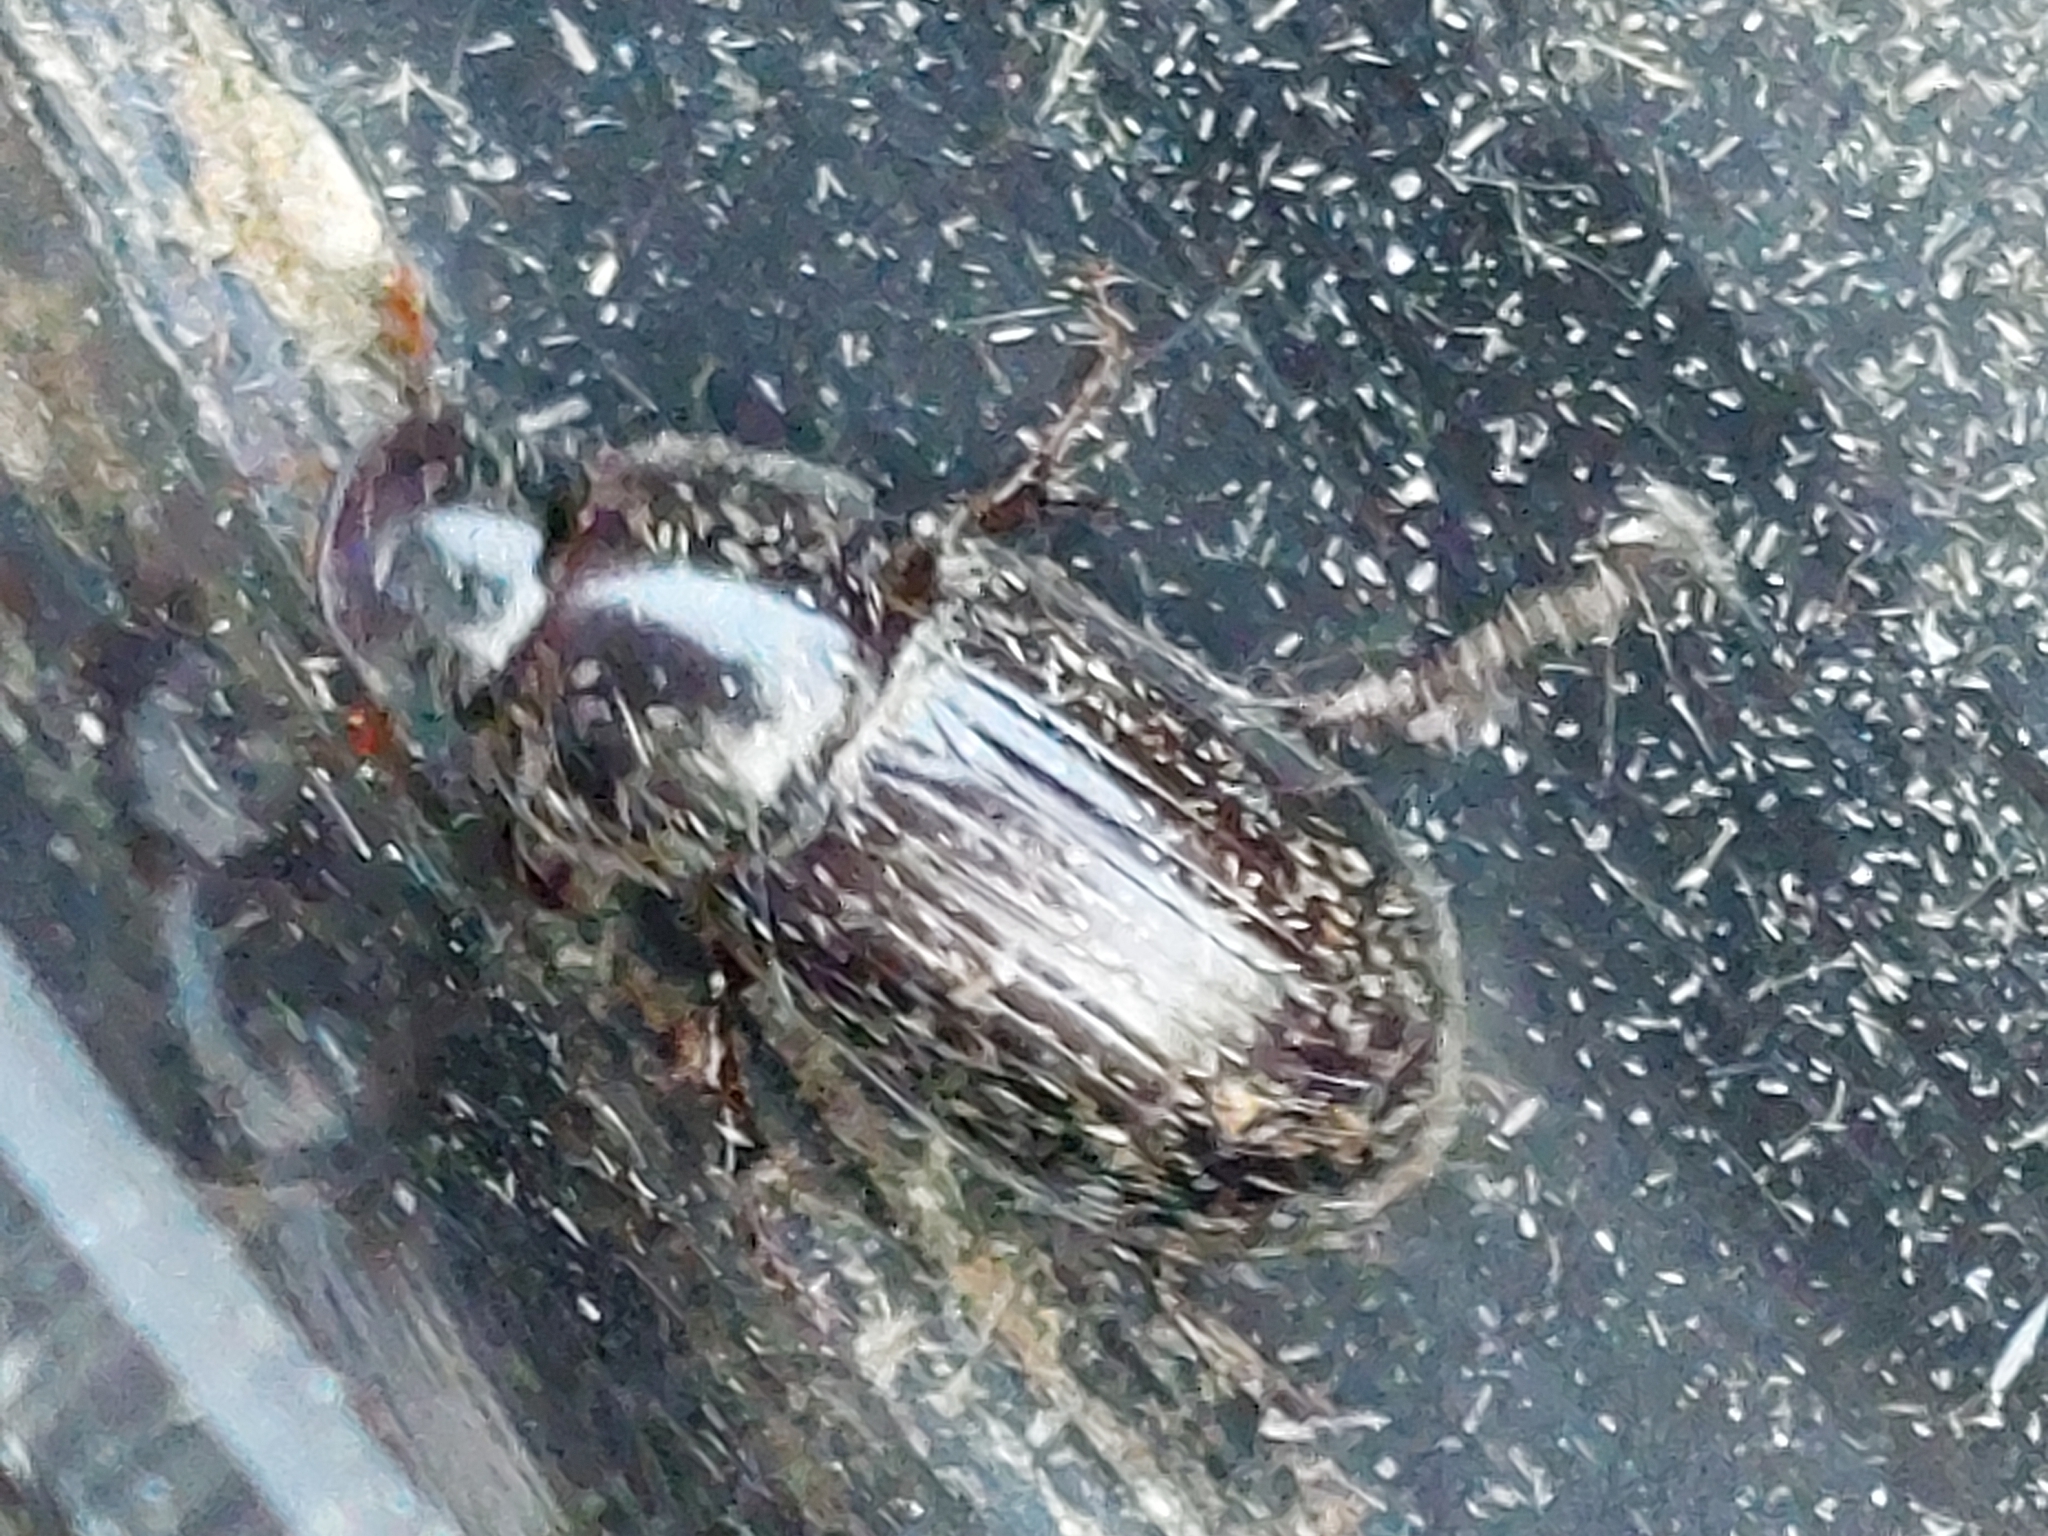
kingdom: Animalia
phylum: Arthropoda
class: Insecta
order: Coleoptera
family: Scarabaeidae
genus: Acrossus
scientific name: Acrossus rufipes
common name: Night-flying dung beetle
